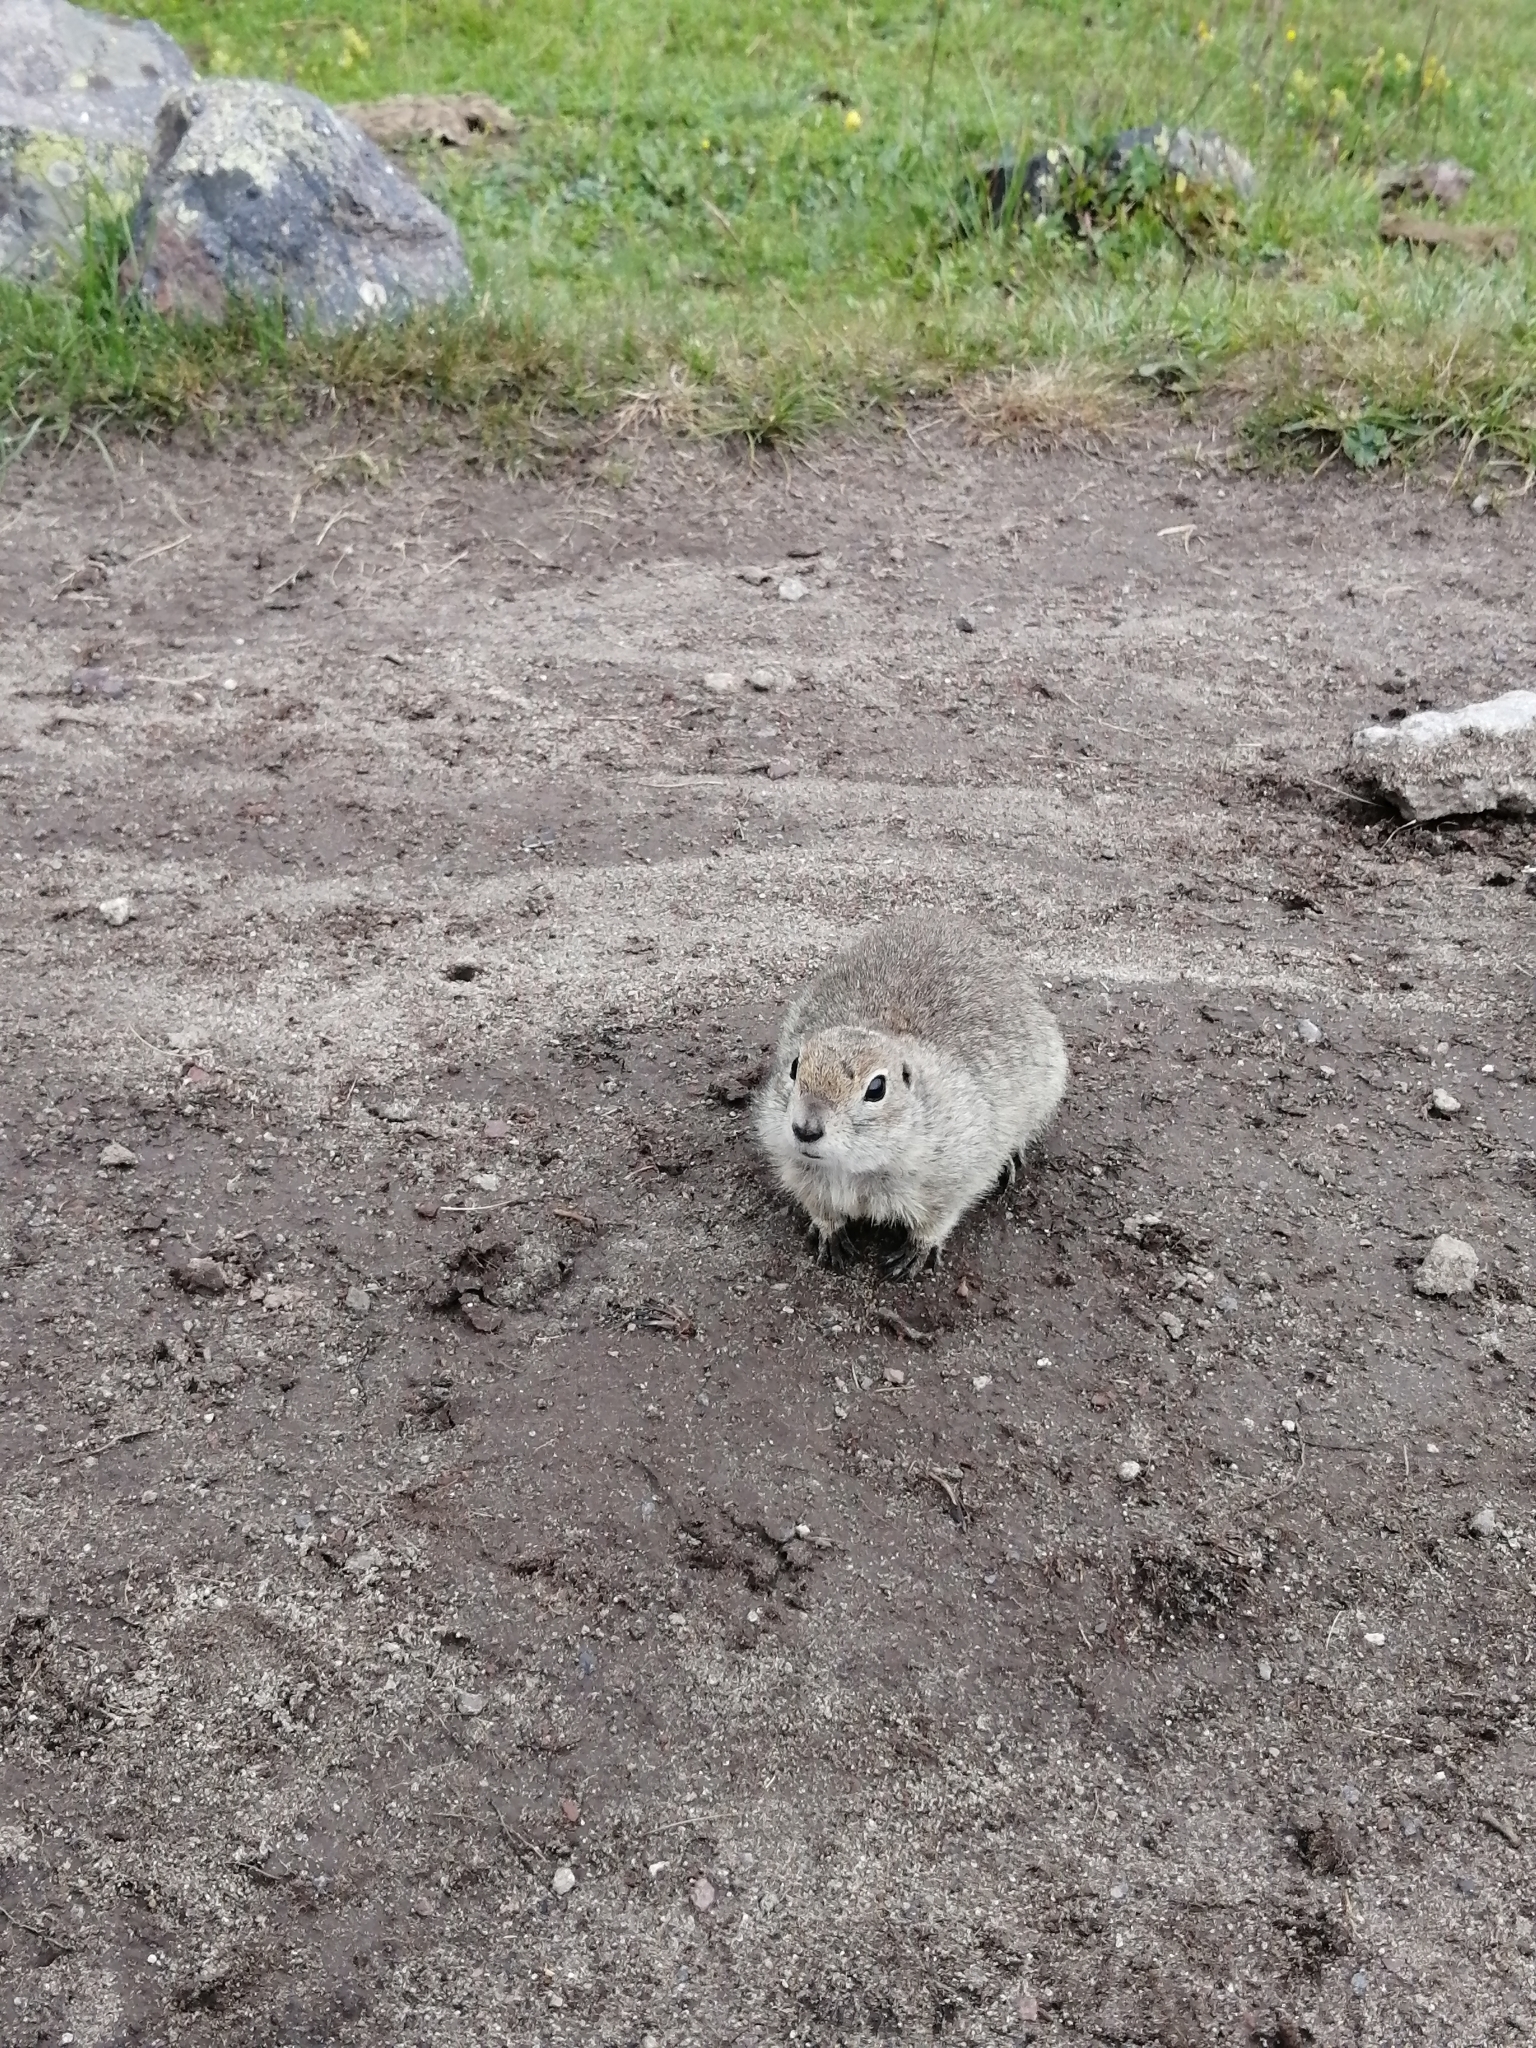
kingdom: Animalia
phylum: Chordata
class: Mammalia
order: Rodentia
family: Sciuridae
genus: Spermophilus
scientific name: Spermophilus musicus
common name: Caucasian mountain ground squirrel
